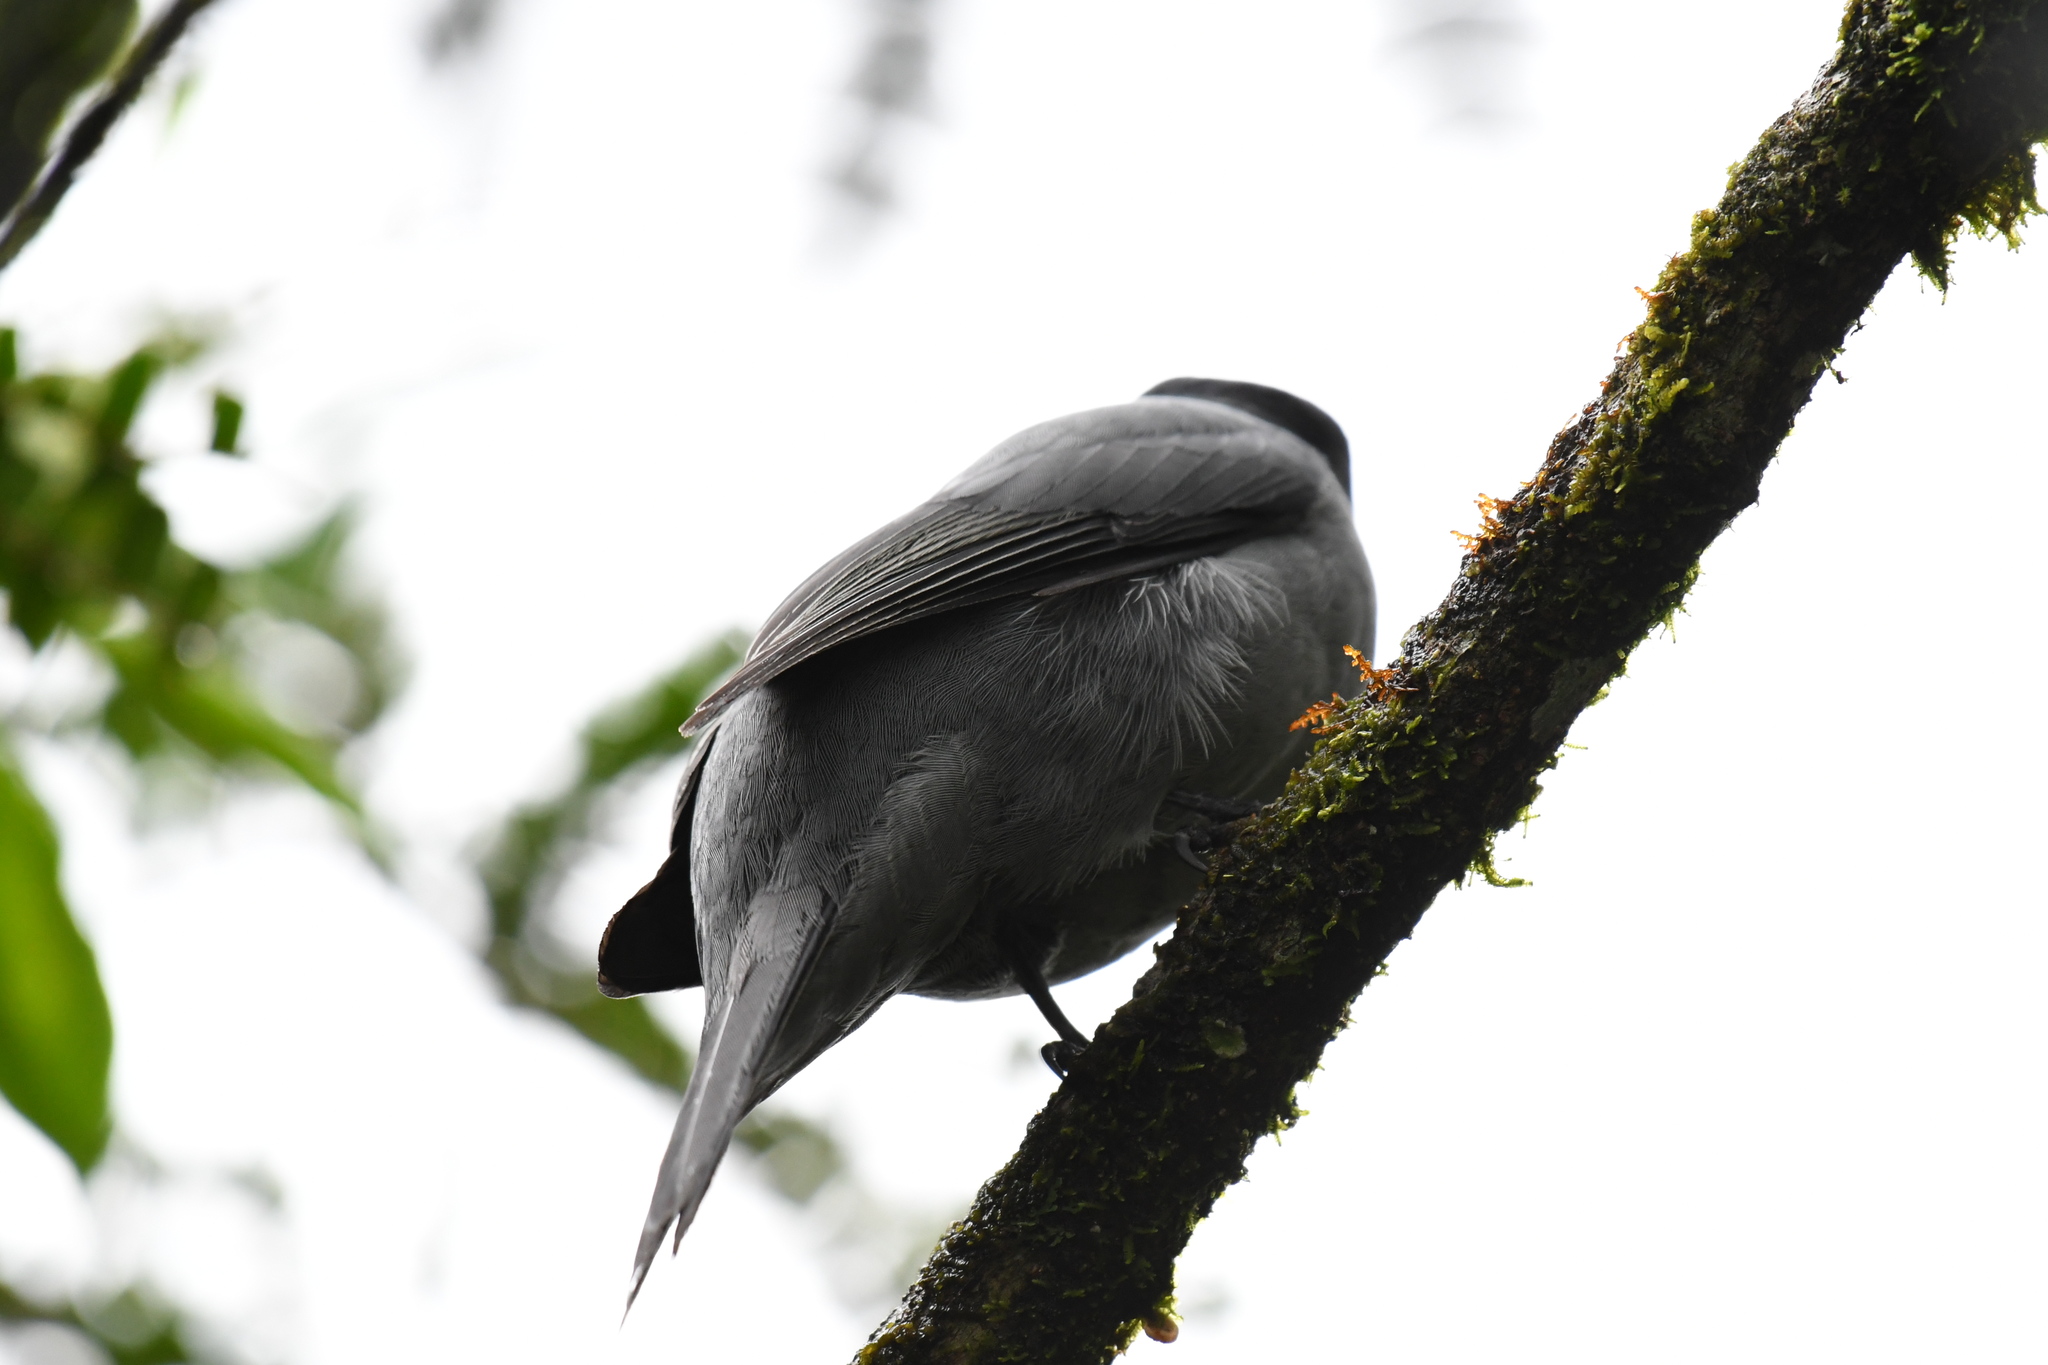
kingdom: Animalia
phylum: Chordata
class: Aves
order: Passeriformes
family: Campephagidae
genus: Coracina
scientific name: Coracina cinerea
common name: Madagascan cuckooshrike
